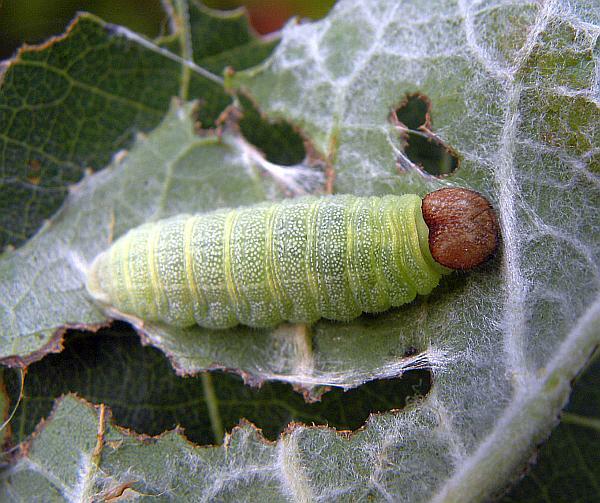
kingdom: Animalia
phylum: Arthropoda
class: Insecta
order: Lepidoptera
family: Hesperiidae
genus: Erynnis
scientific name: Erynnis icelus
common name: Dreamy duskywing
